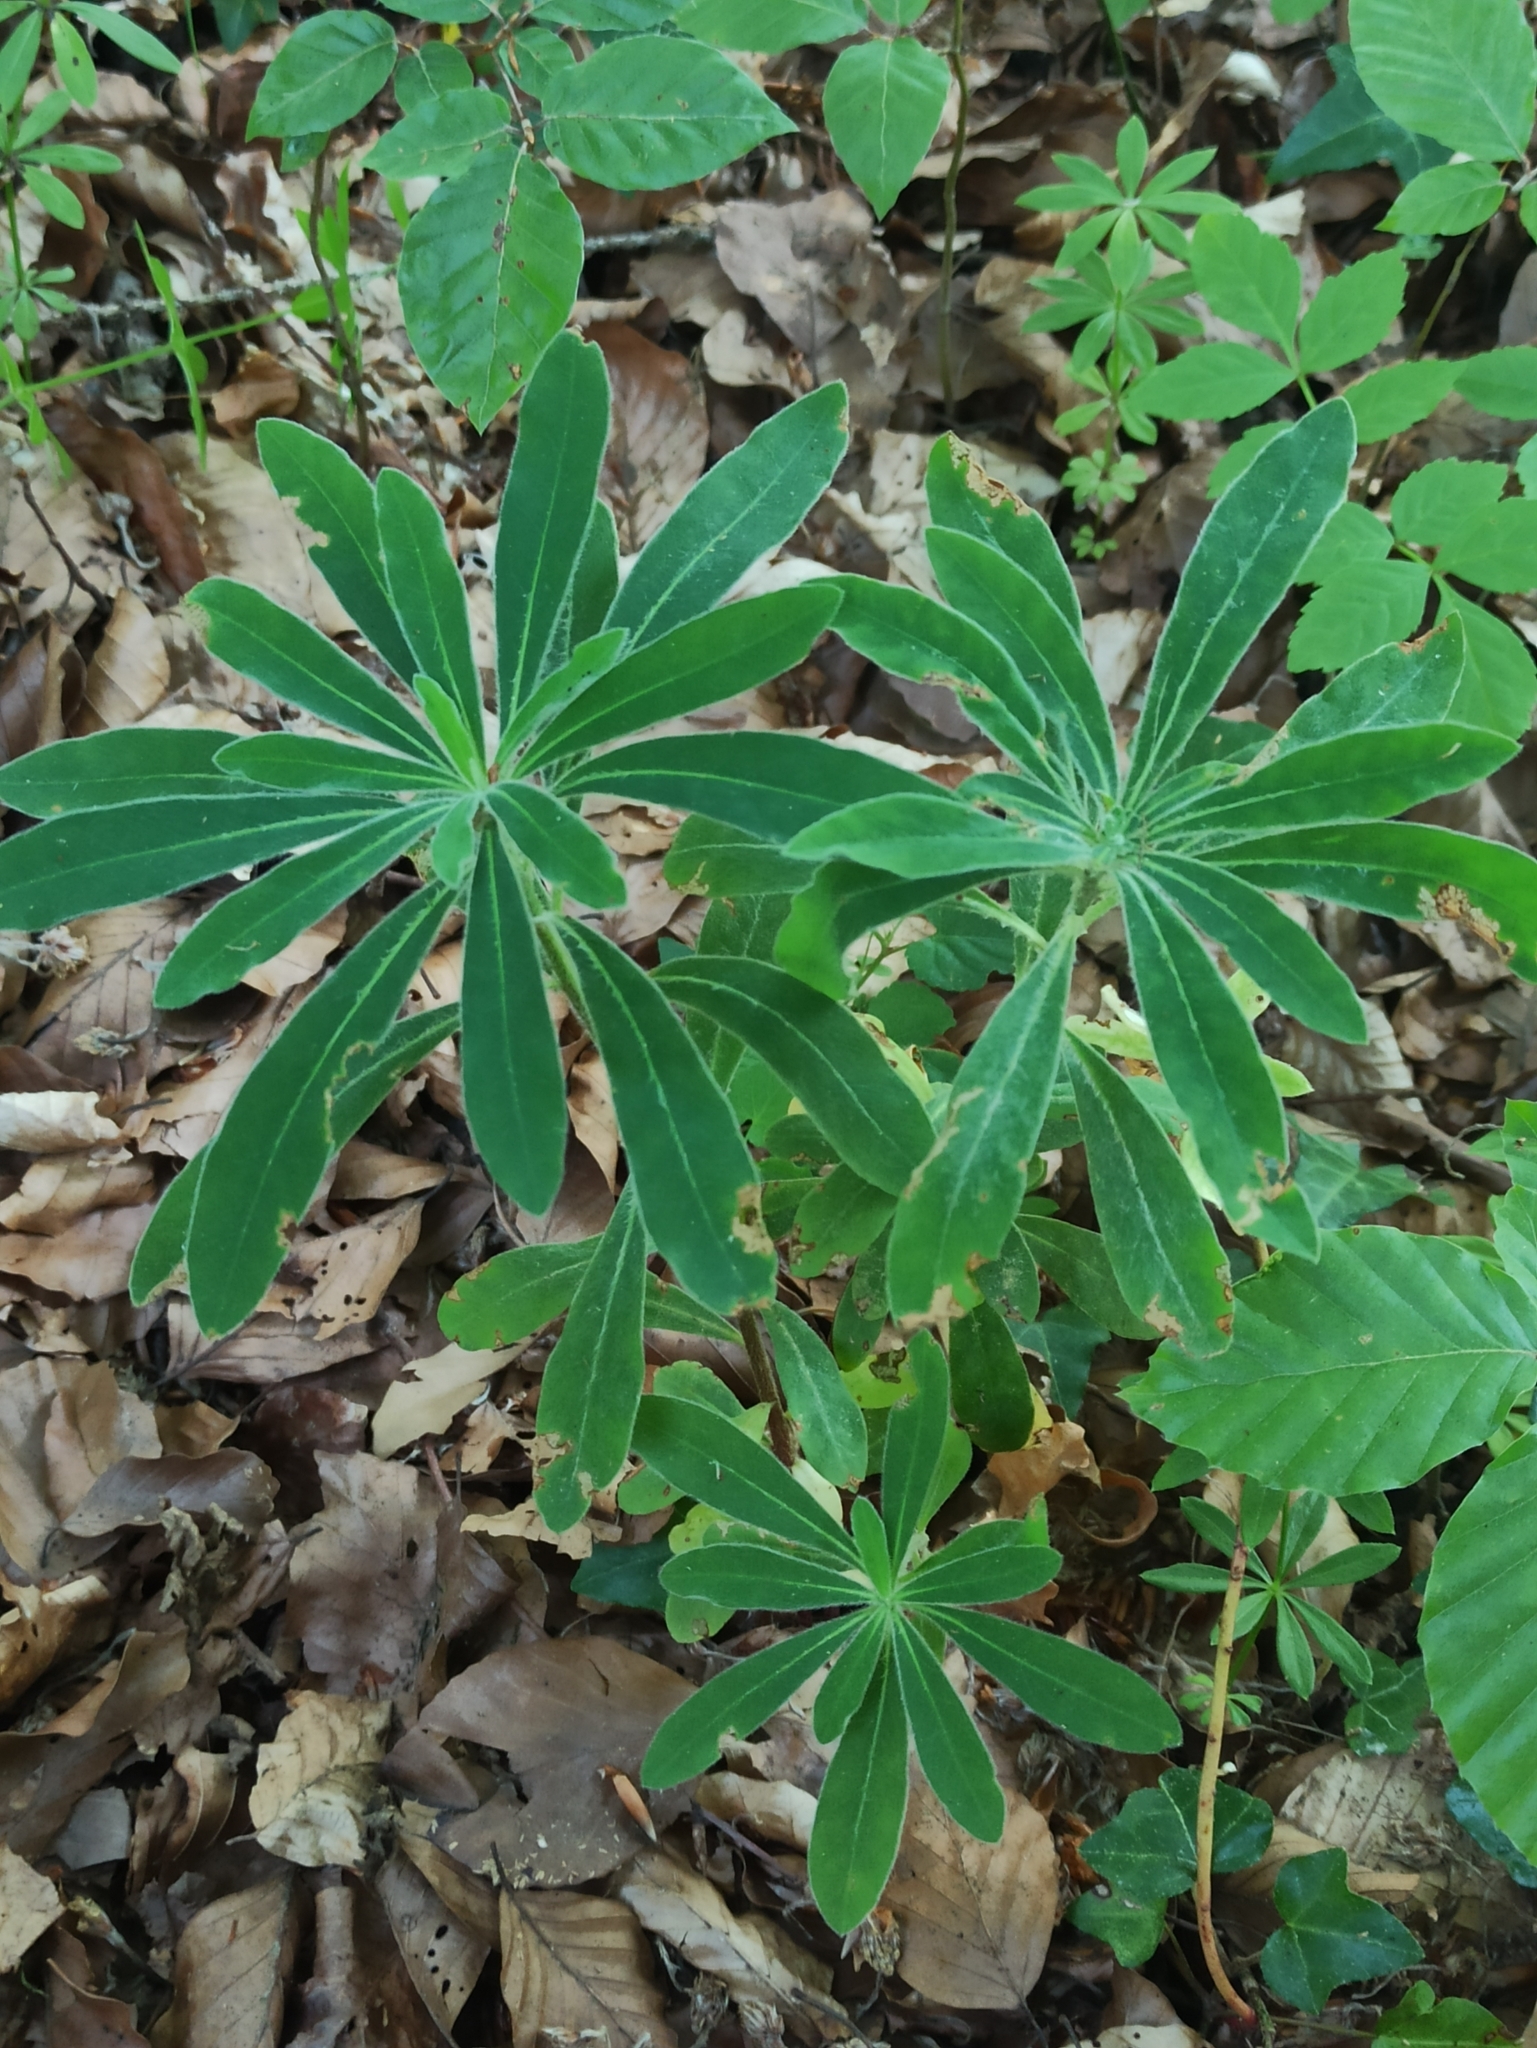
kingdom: Plantae
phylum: Tracheophyta
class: Magnoliopsida
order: Malvales
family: Thymelaeaceae
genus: Daphne
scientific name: Daphne mezereum
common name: Mezereon
